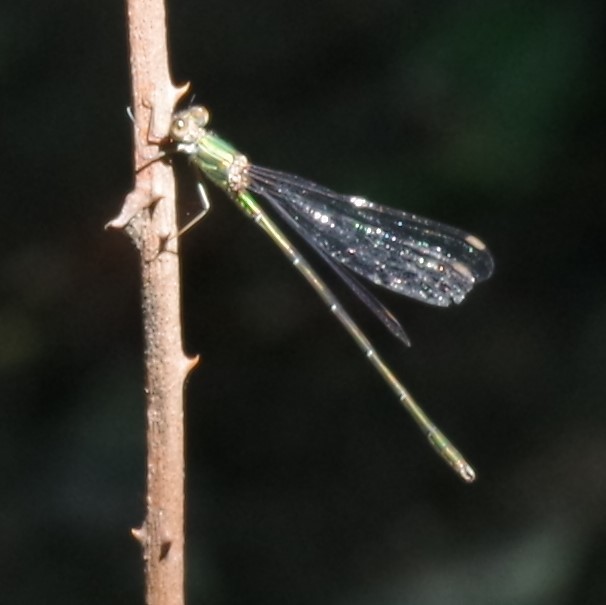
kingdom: Animalia
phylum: Arthropoda
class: Insecta
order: Odonata
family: Lestidae
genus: Chalcolestes
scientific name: Chalcolestes viridis
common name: Green emerald damselfly
